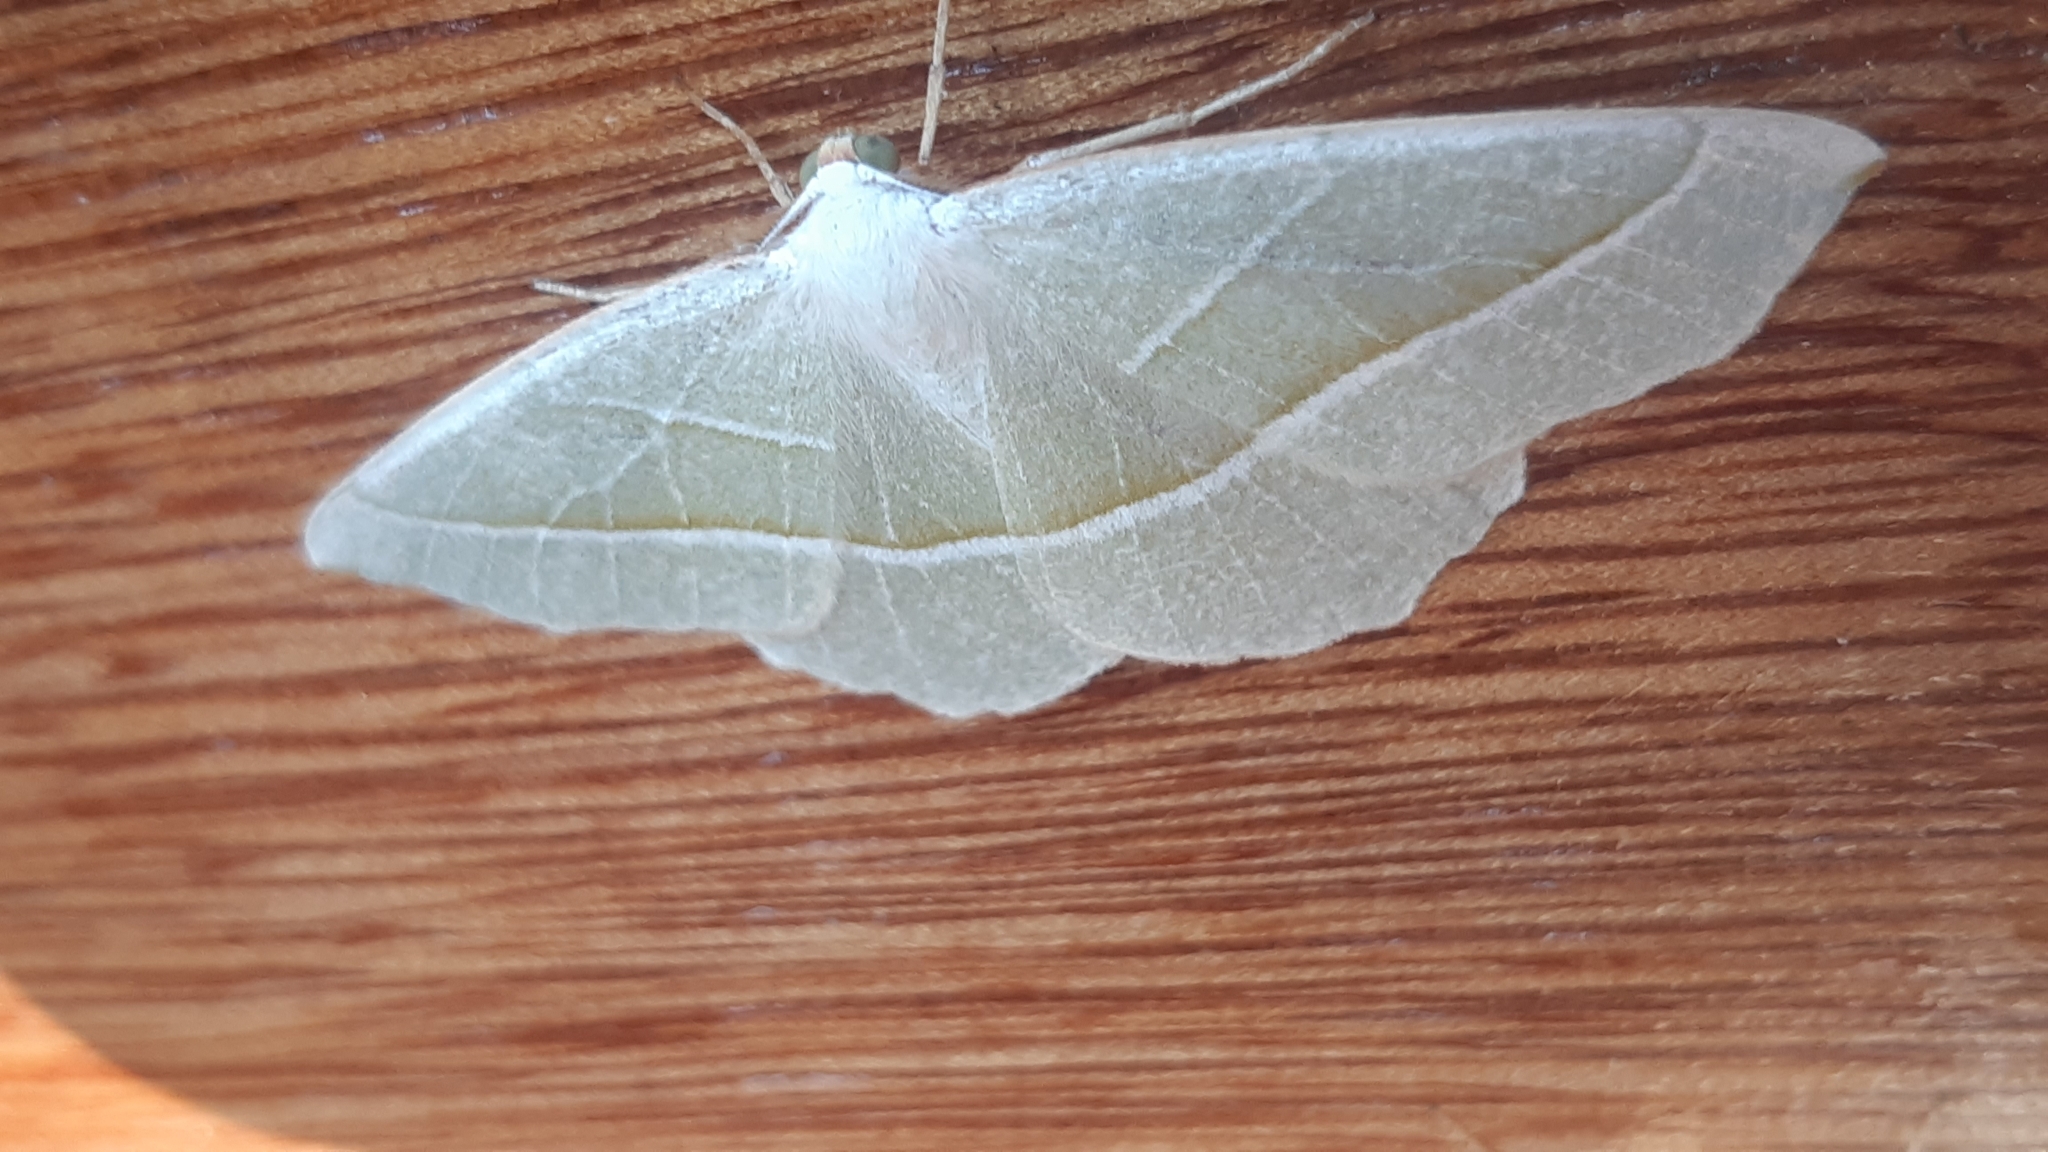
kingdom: Animalia
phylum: Arthropoda
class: Insecta
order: Lepidoptera
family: Geometridae
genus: Campaea
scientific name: Campaea margaritaria
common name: Light emerald
